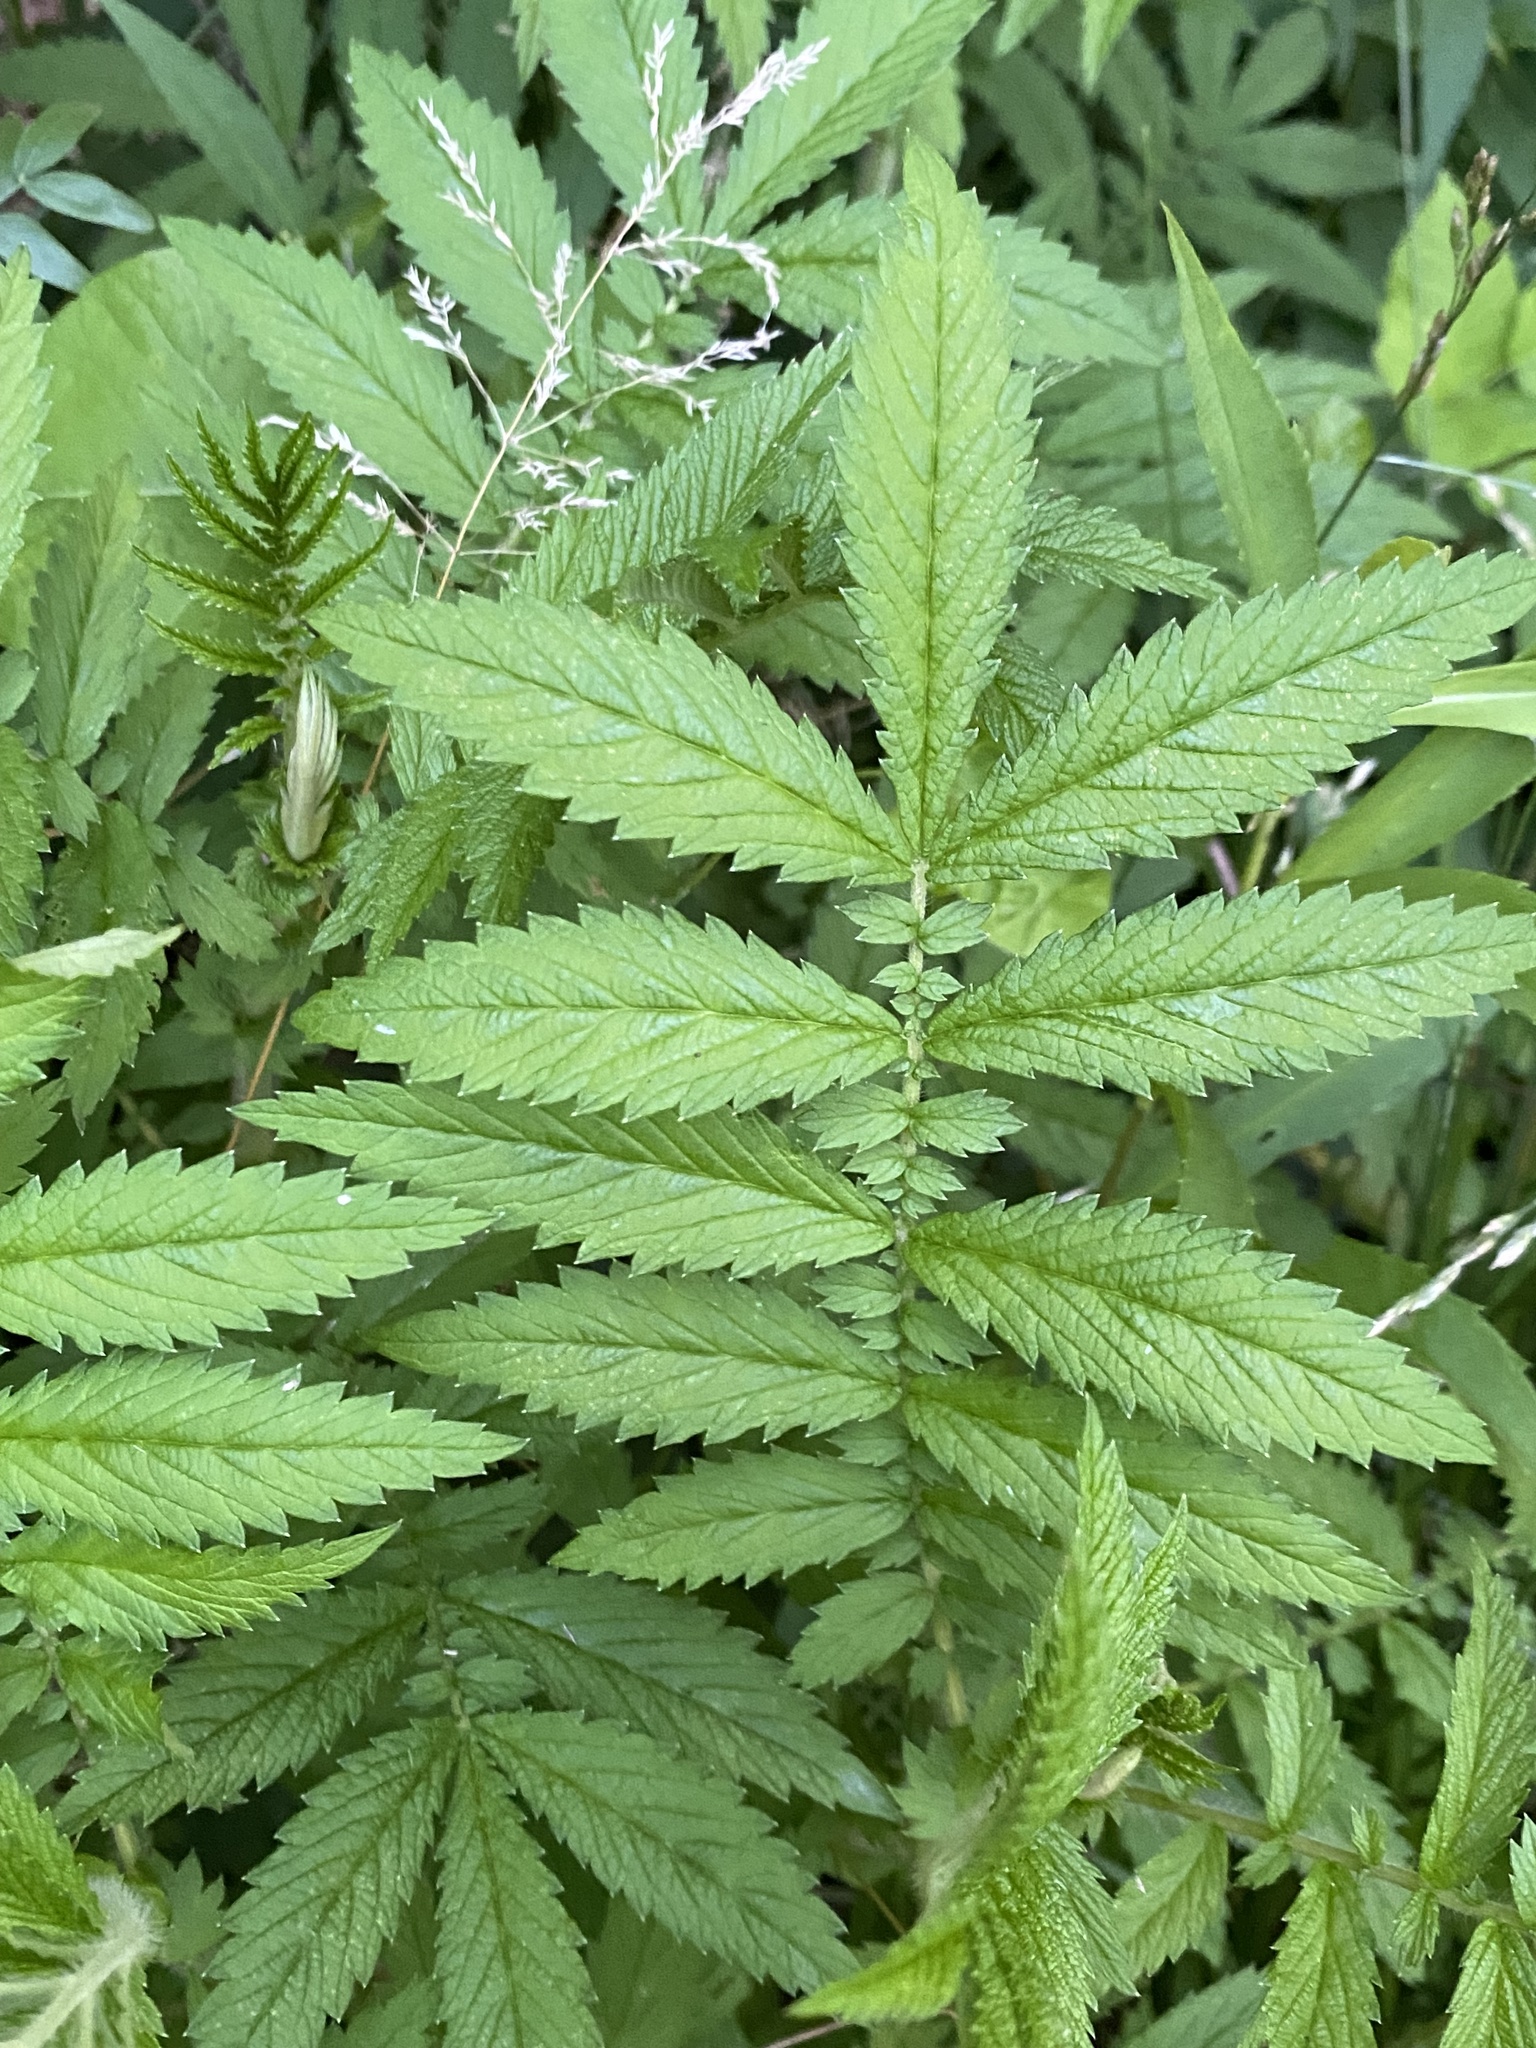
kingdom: Plantae
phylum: Tracheophyta
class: Magnoliopsida
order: Rosales
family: Rosaceae
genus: Agrimonia
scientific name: Agrimonia parviflora
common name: Harvest-lice
